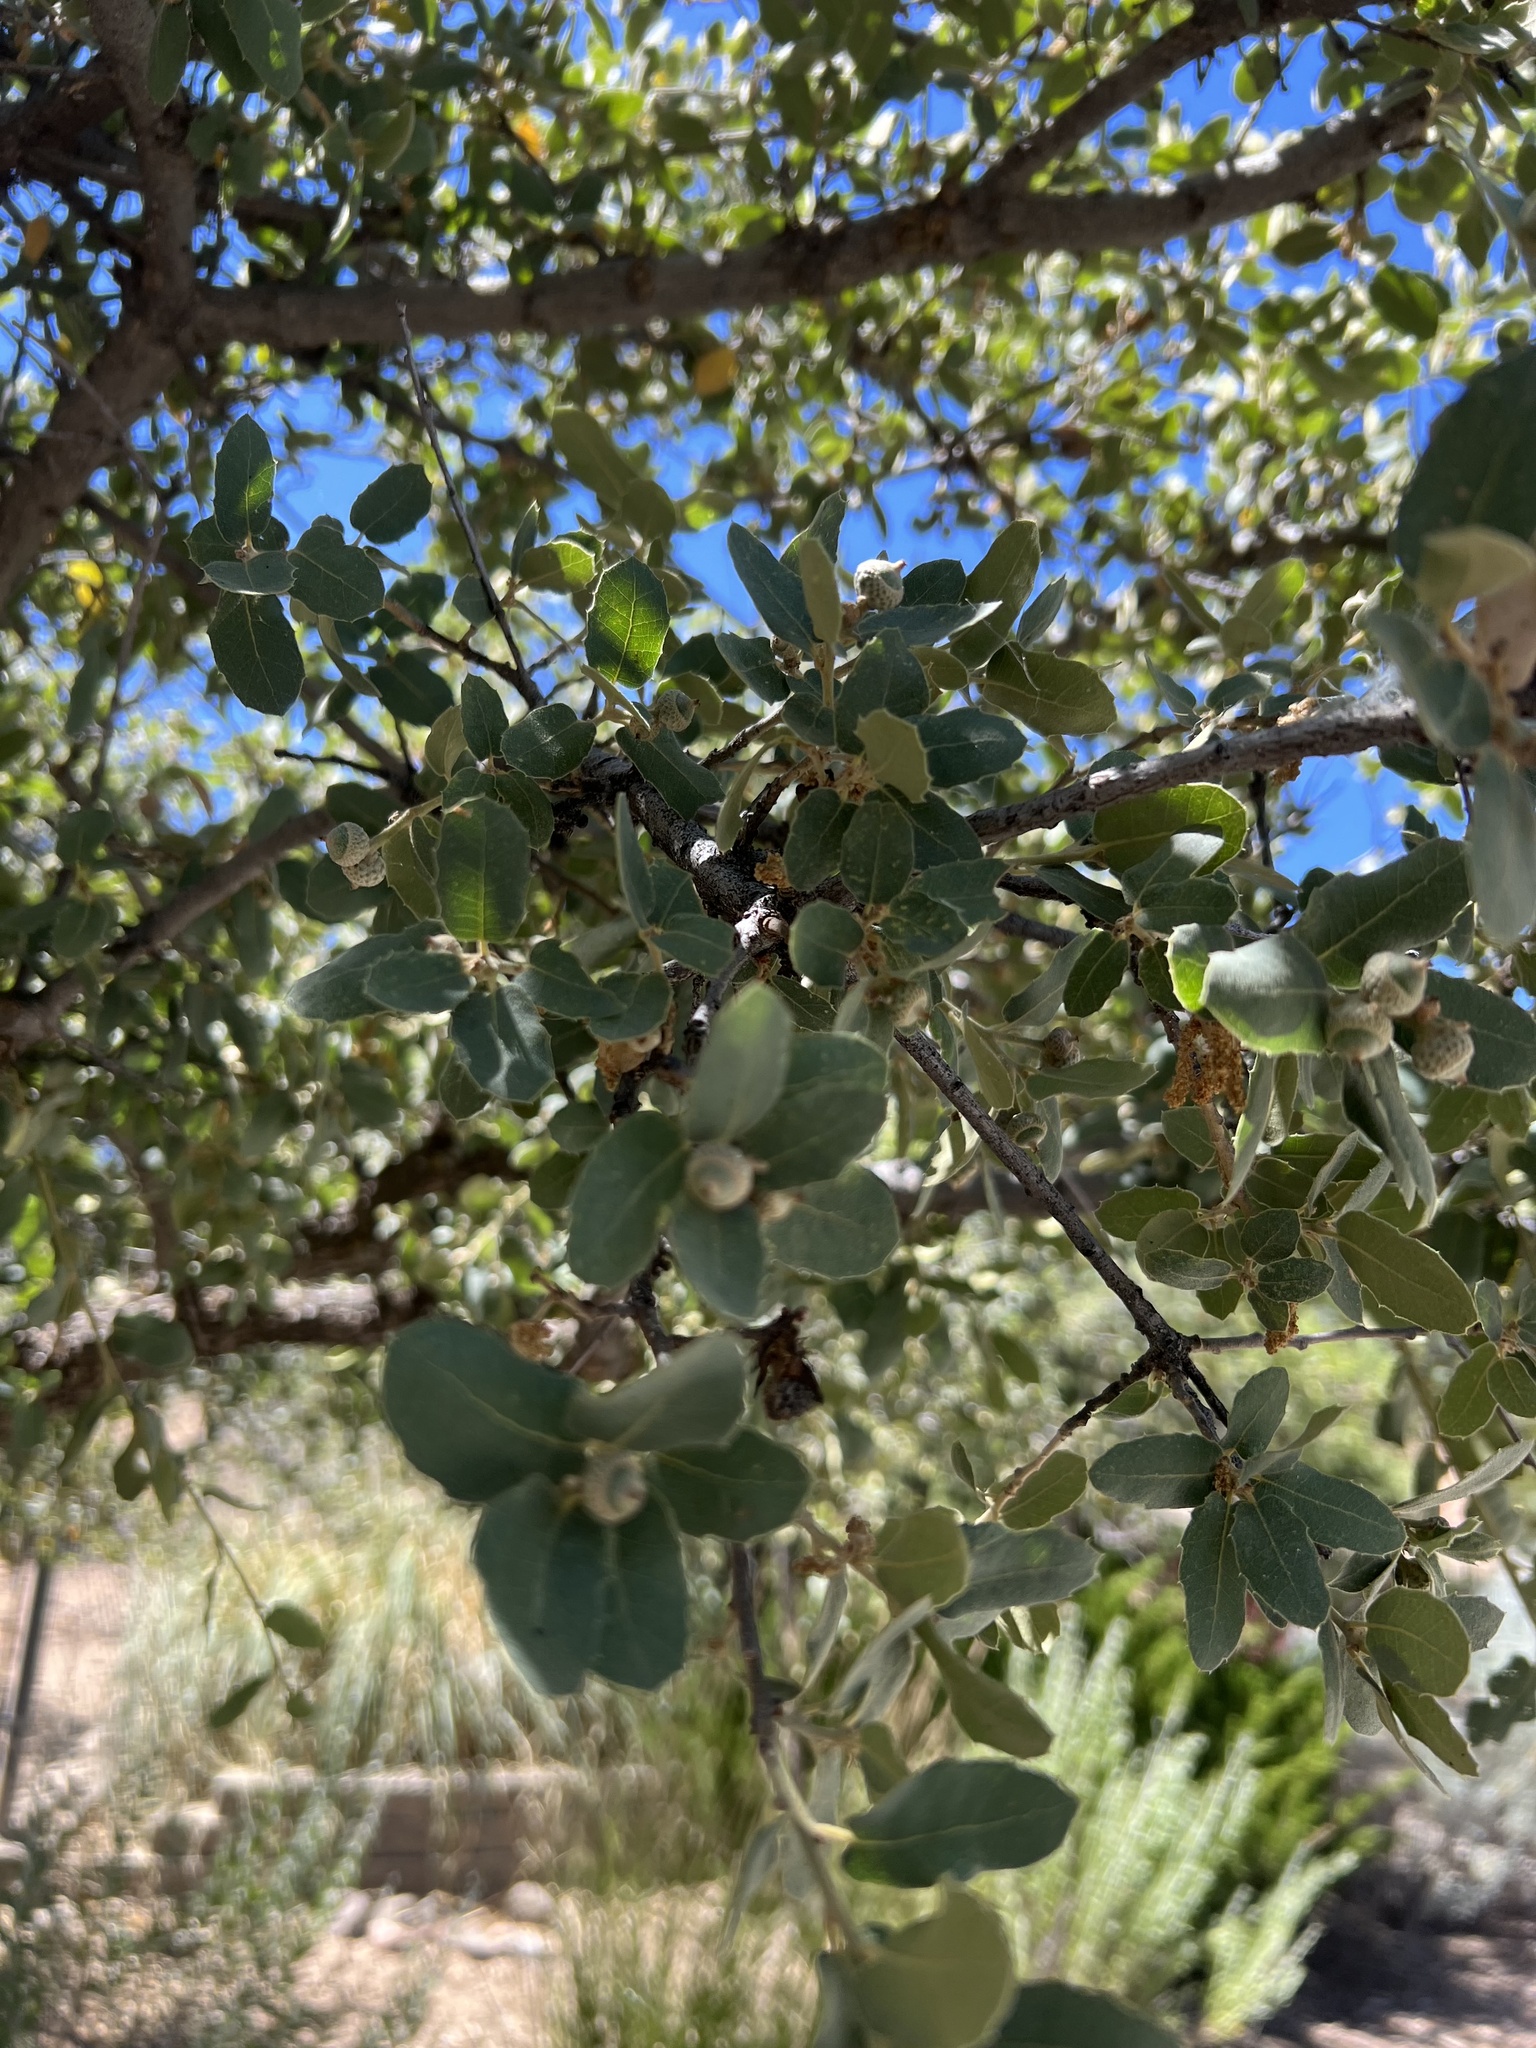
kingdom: Plantae
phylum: Tracheophyta
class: Magnoliopsida
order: Fagales
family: Fagaceae
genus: Quercus
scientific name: Quercus grisea
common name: Gray oak
